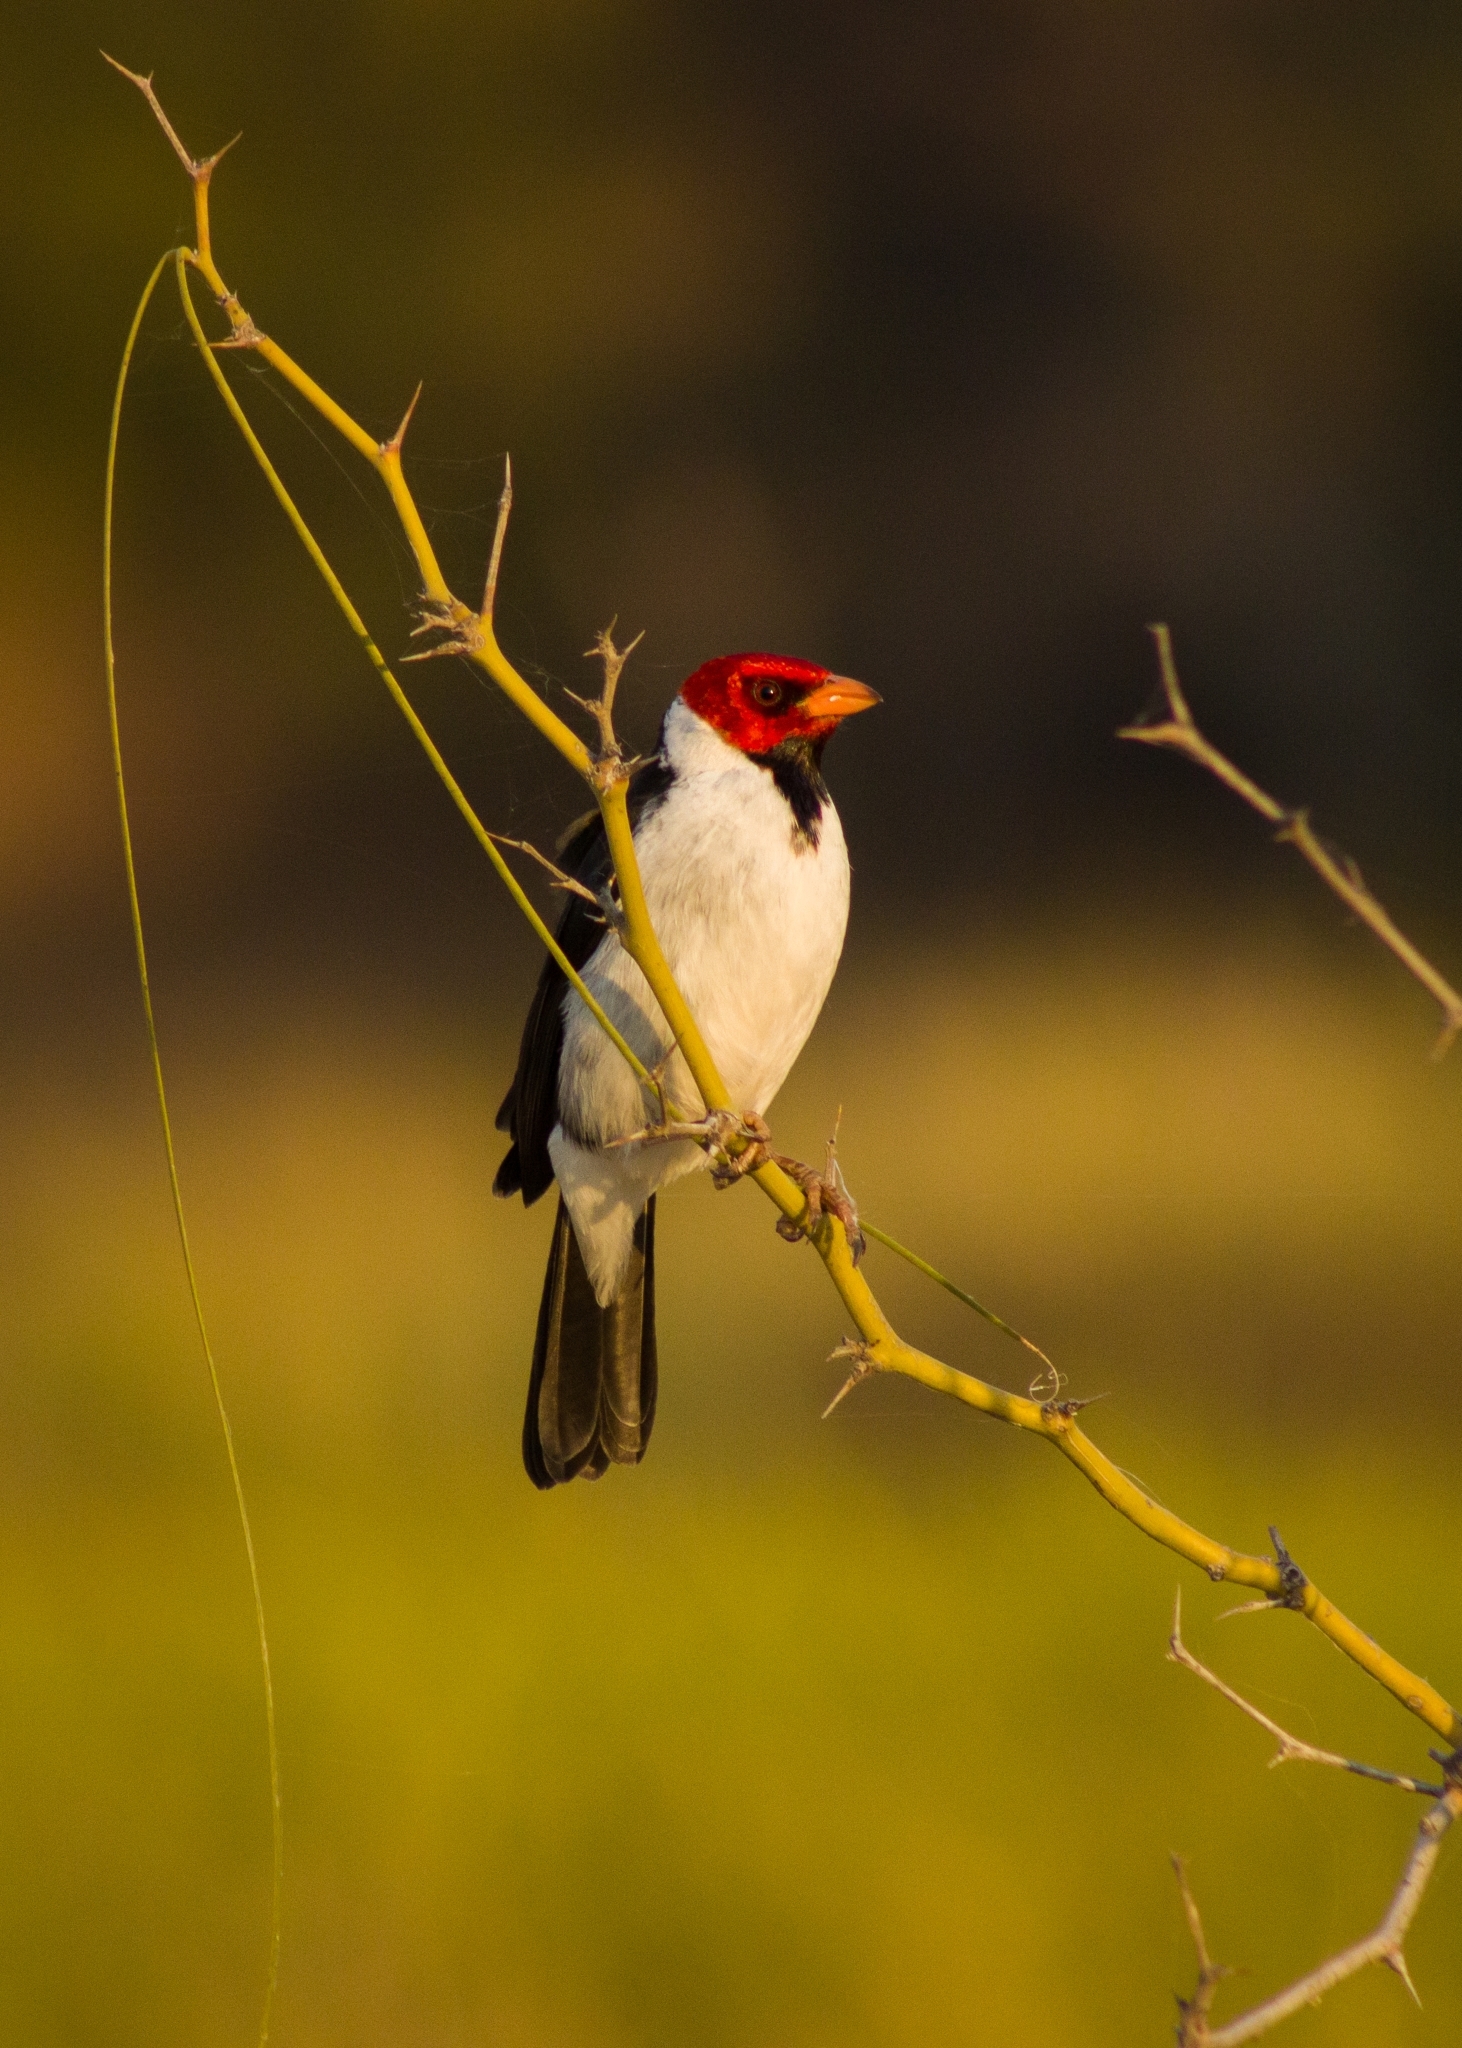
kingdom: Animalia
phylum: Chordata
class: Aves
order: Passeriformes
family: Thraupidae
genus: Paroaria
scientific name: Paroaria capitata
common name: Yellow-billed cardinal
